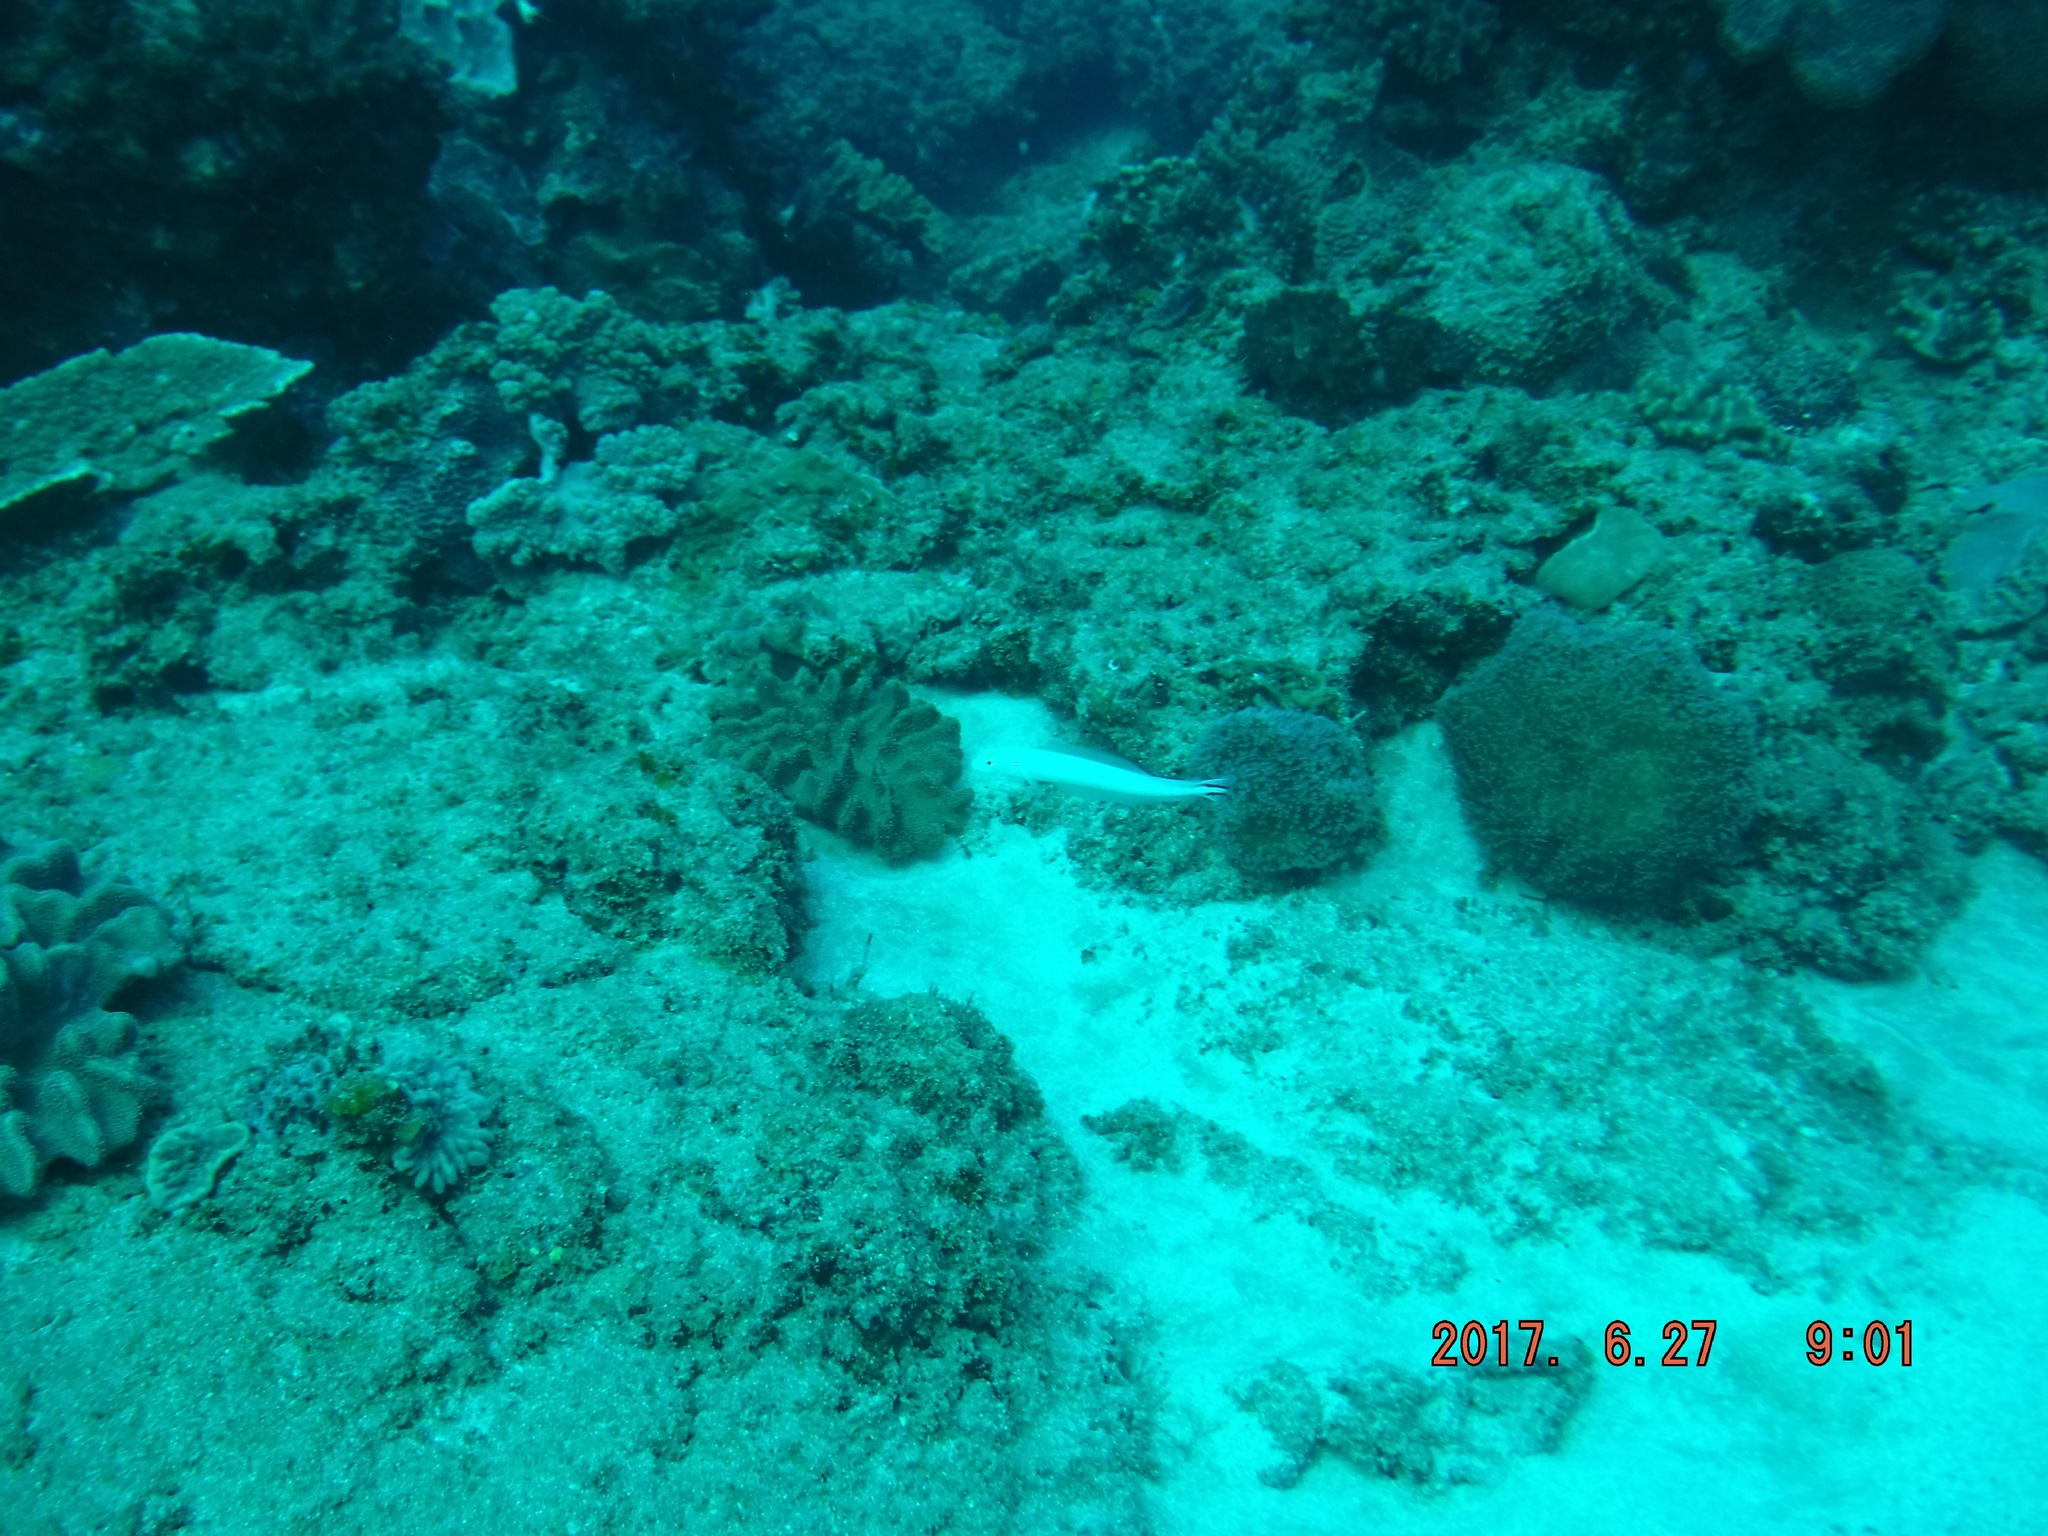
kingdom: Animalia
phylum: Chordata
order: Perciformes
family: Malacanthidae
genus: Malacanthus
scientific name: Malacanthus brevirostris
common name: Flagtail blanquillo
